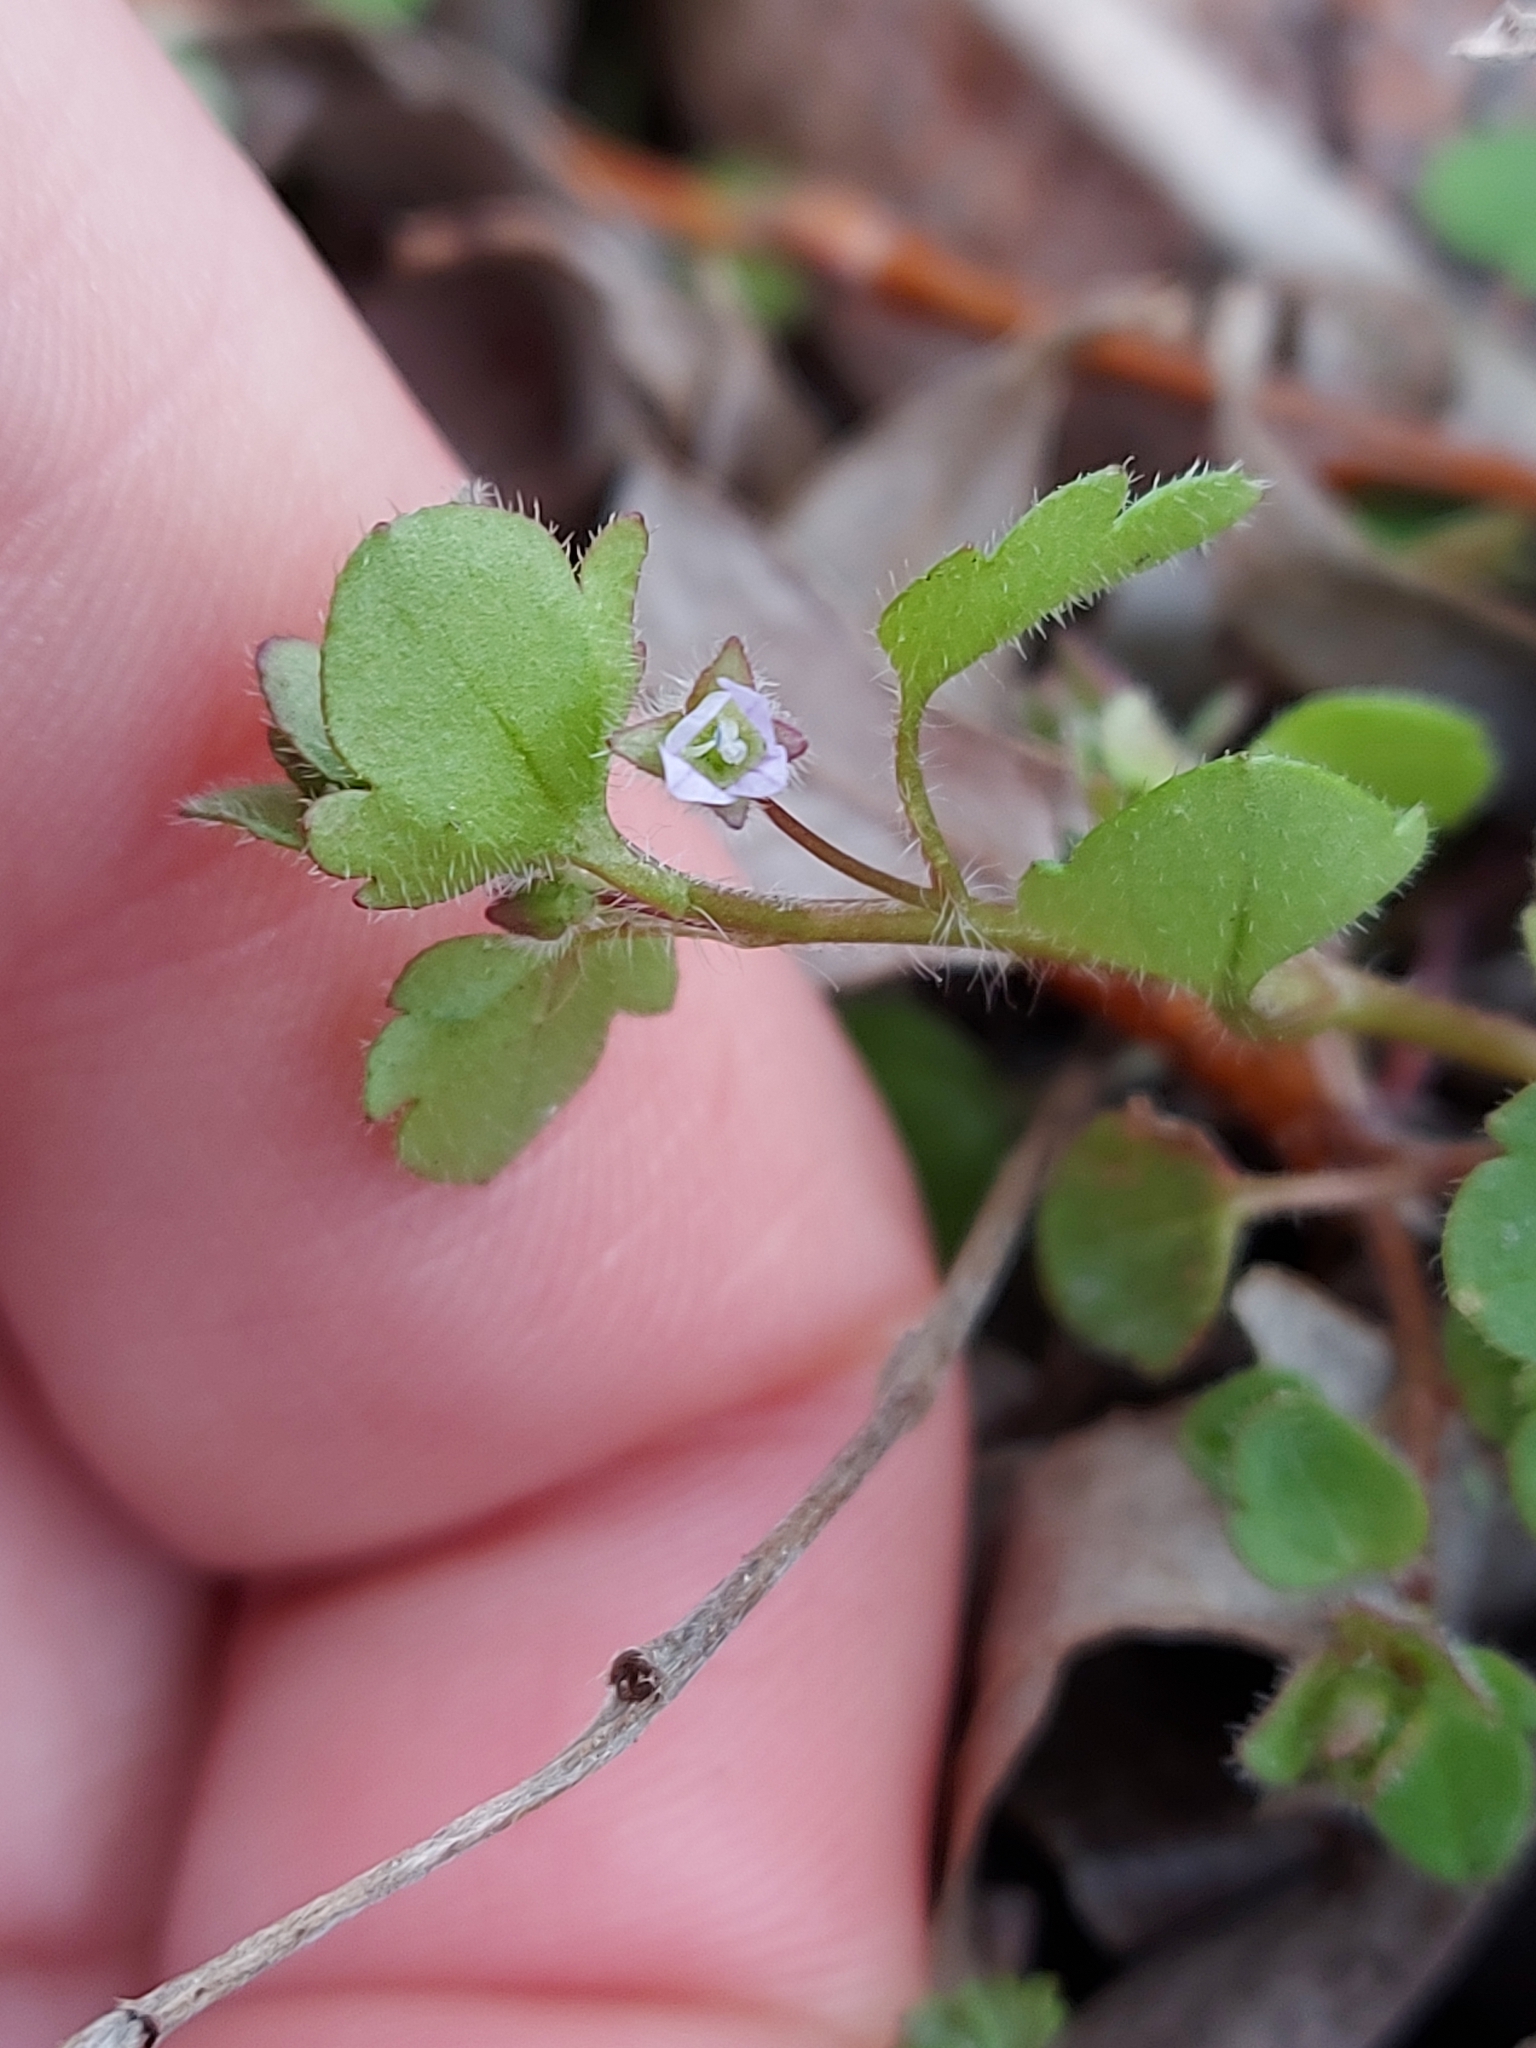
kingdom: Plantae
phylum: Tracheophyta
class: Magnoliopsida
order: Lamiales
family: Plantaginaceae
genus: Veronica
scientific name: Veronica sublobata
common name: False ivy-leaved speedwell
